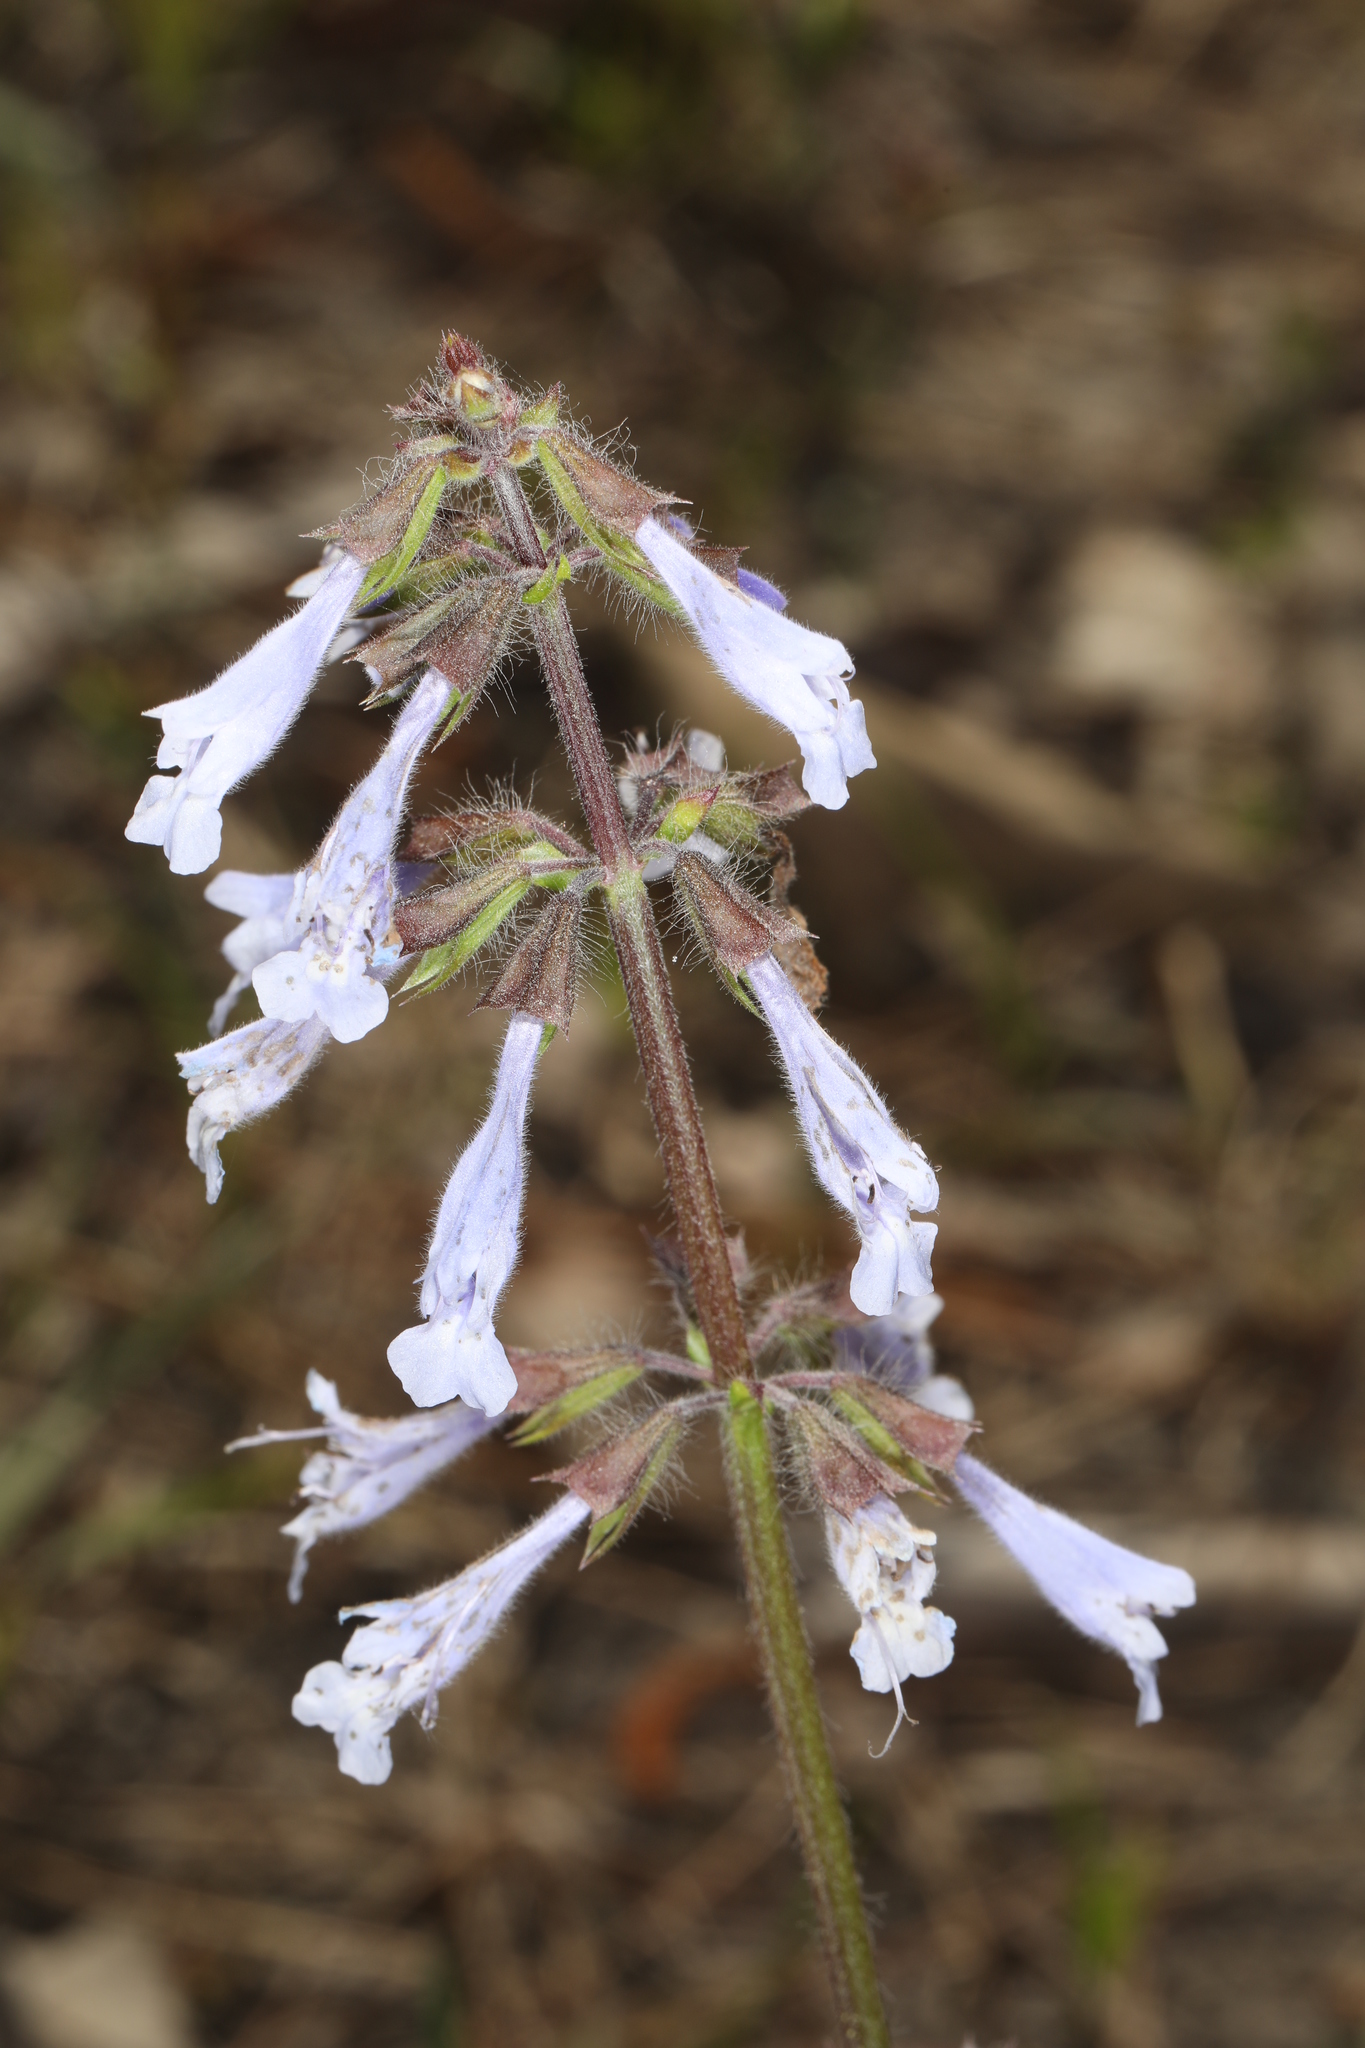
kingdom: Plantae
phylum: Tracheophyta
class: Magnoliopsida
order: Lamiales
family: Lamiaceae
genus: Salvia
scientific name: Salvia lyrata
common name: Cancerweed
